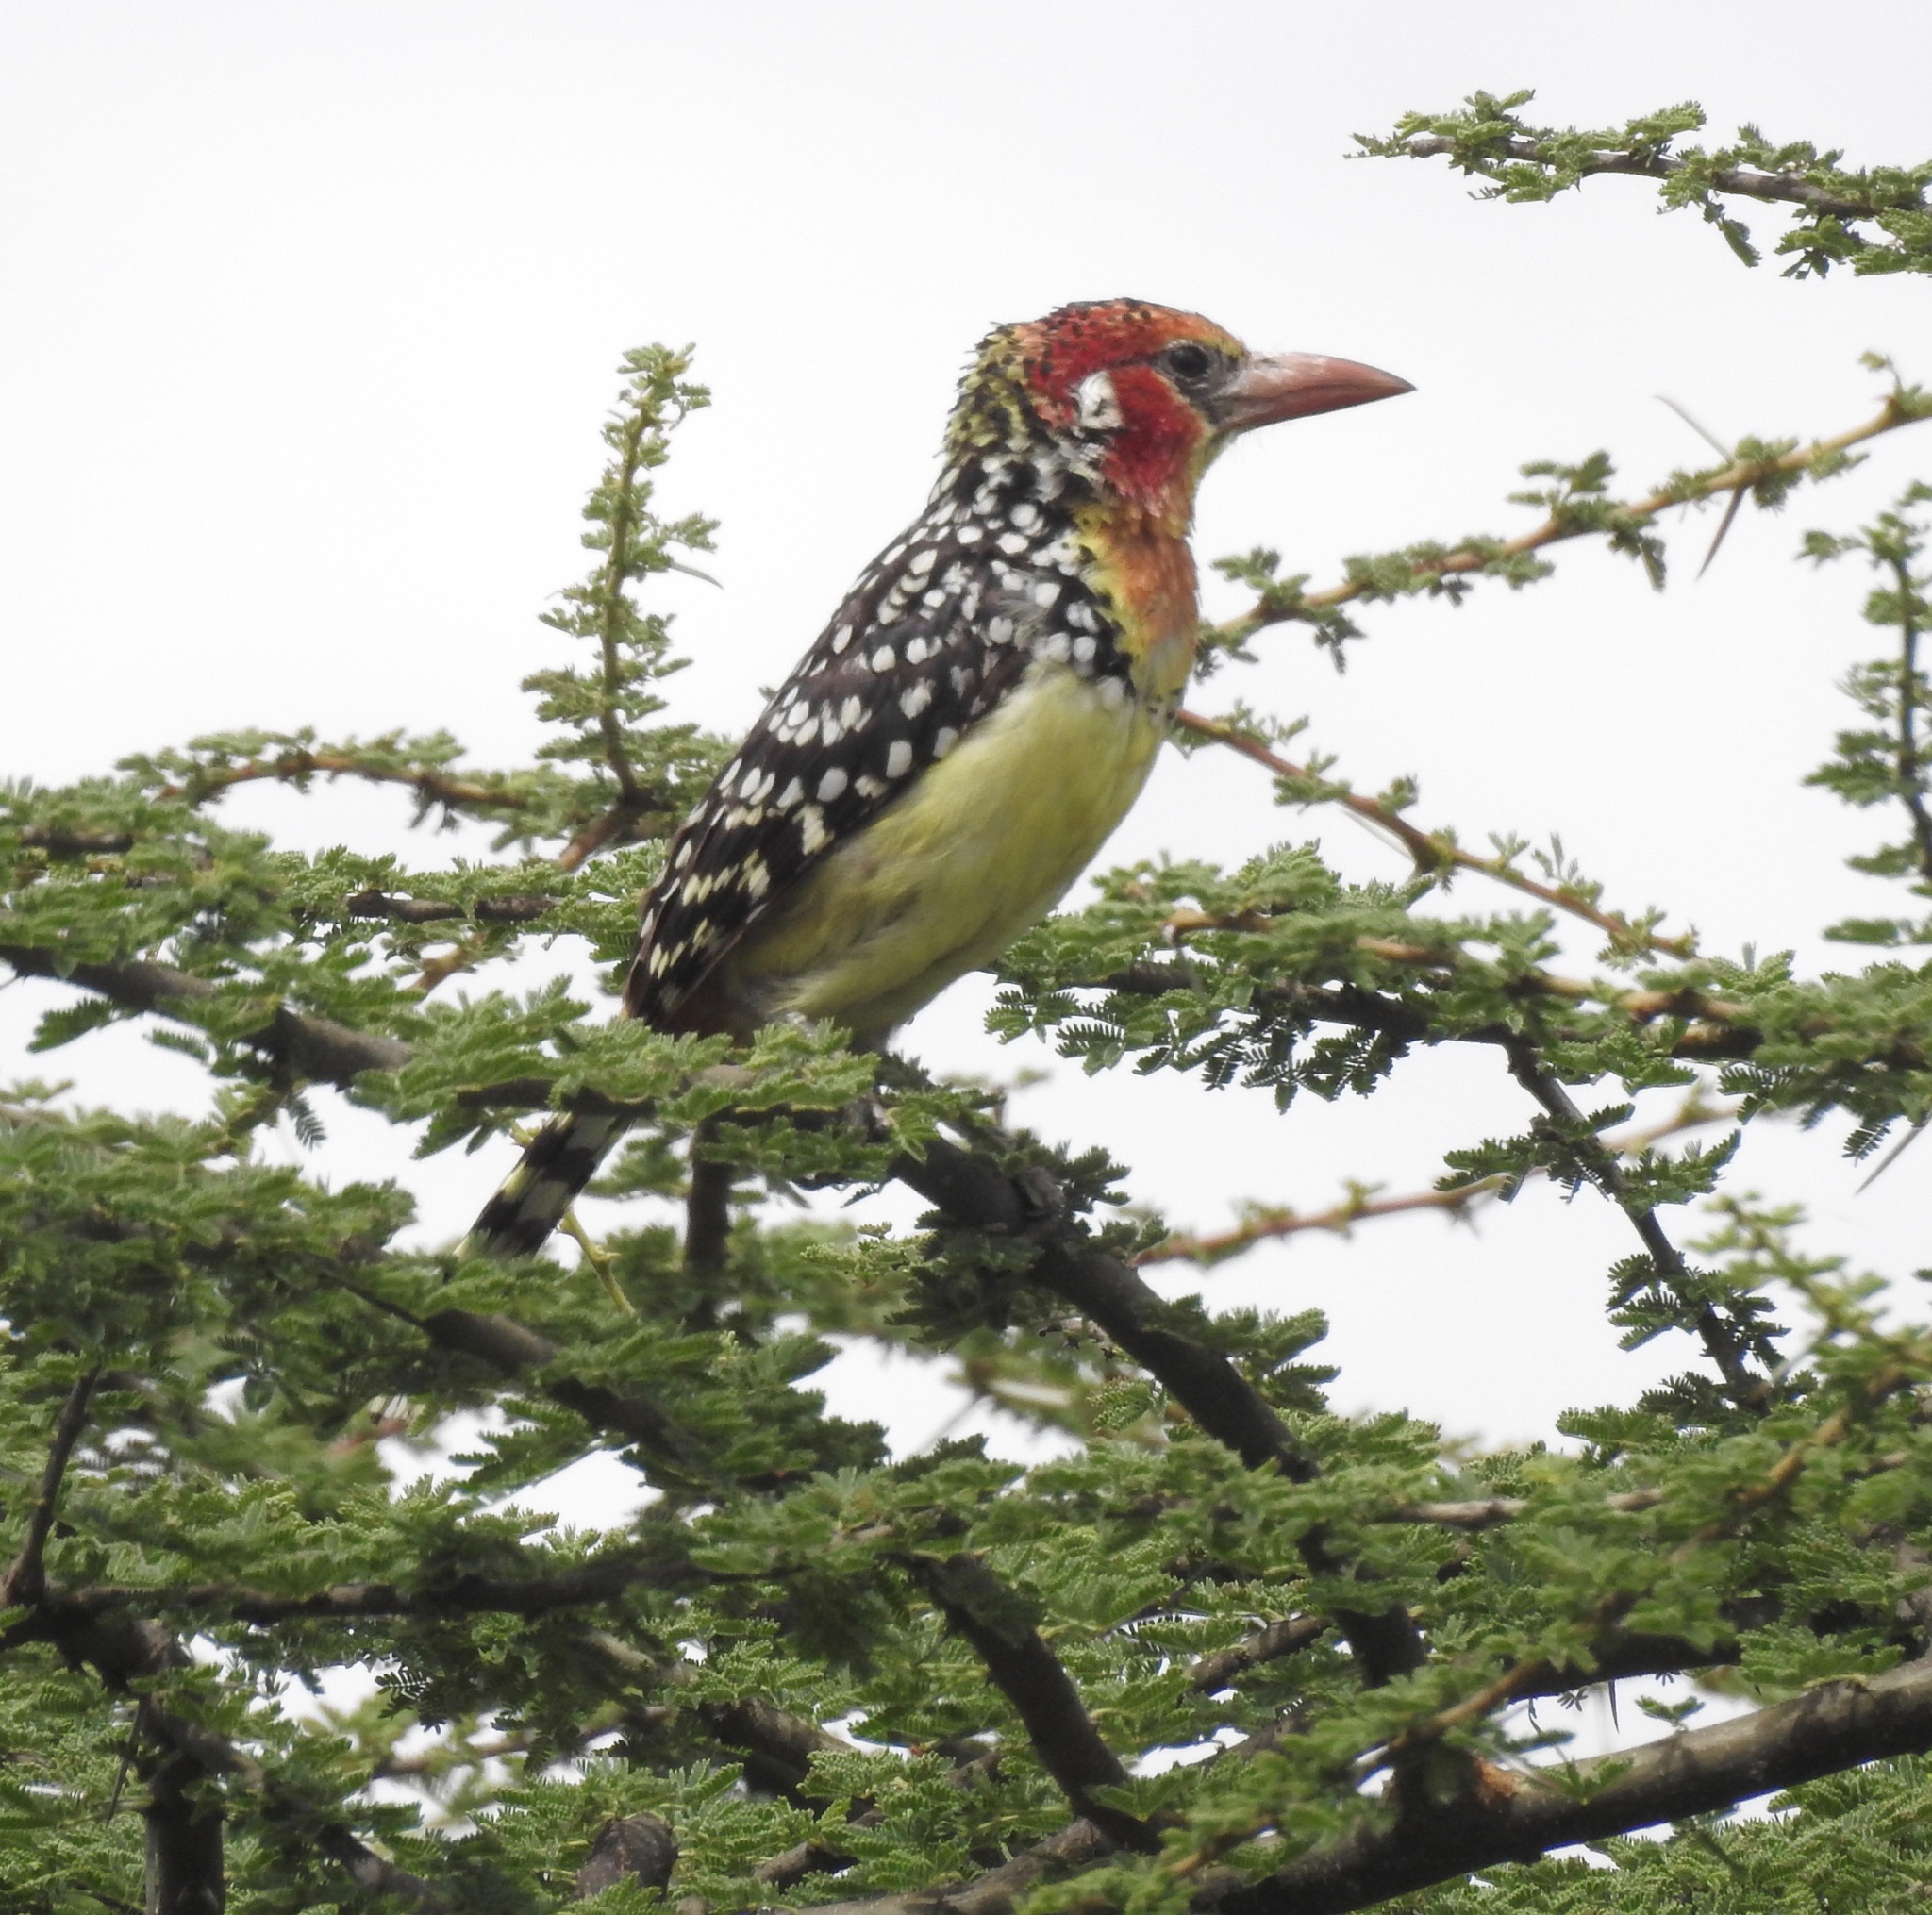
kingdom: Animalia
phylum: Chordata
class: Aves
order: Piciformes
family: Lybiidae
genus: Trachyphonus
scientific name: Trachyphonus erythrocephalus
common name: Red-and-yellow barbet
